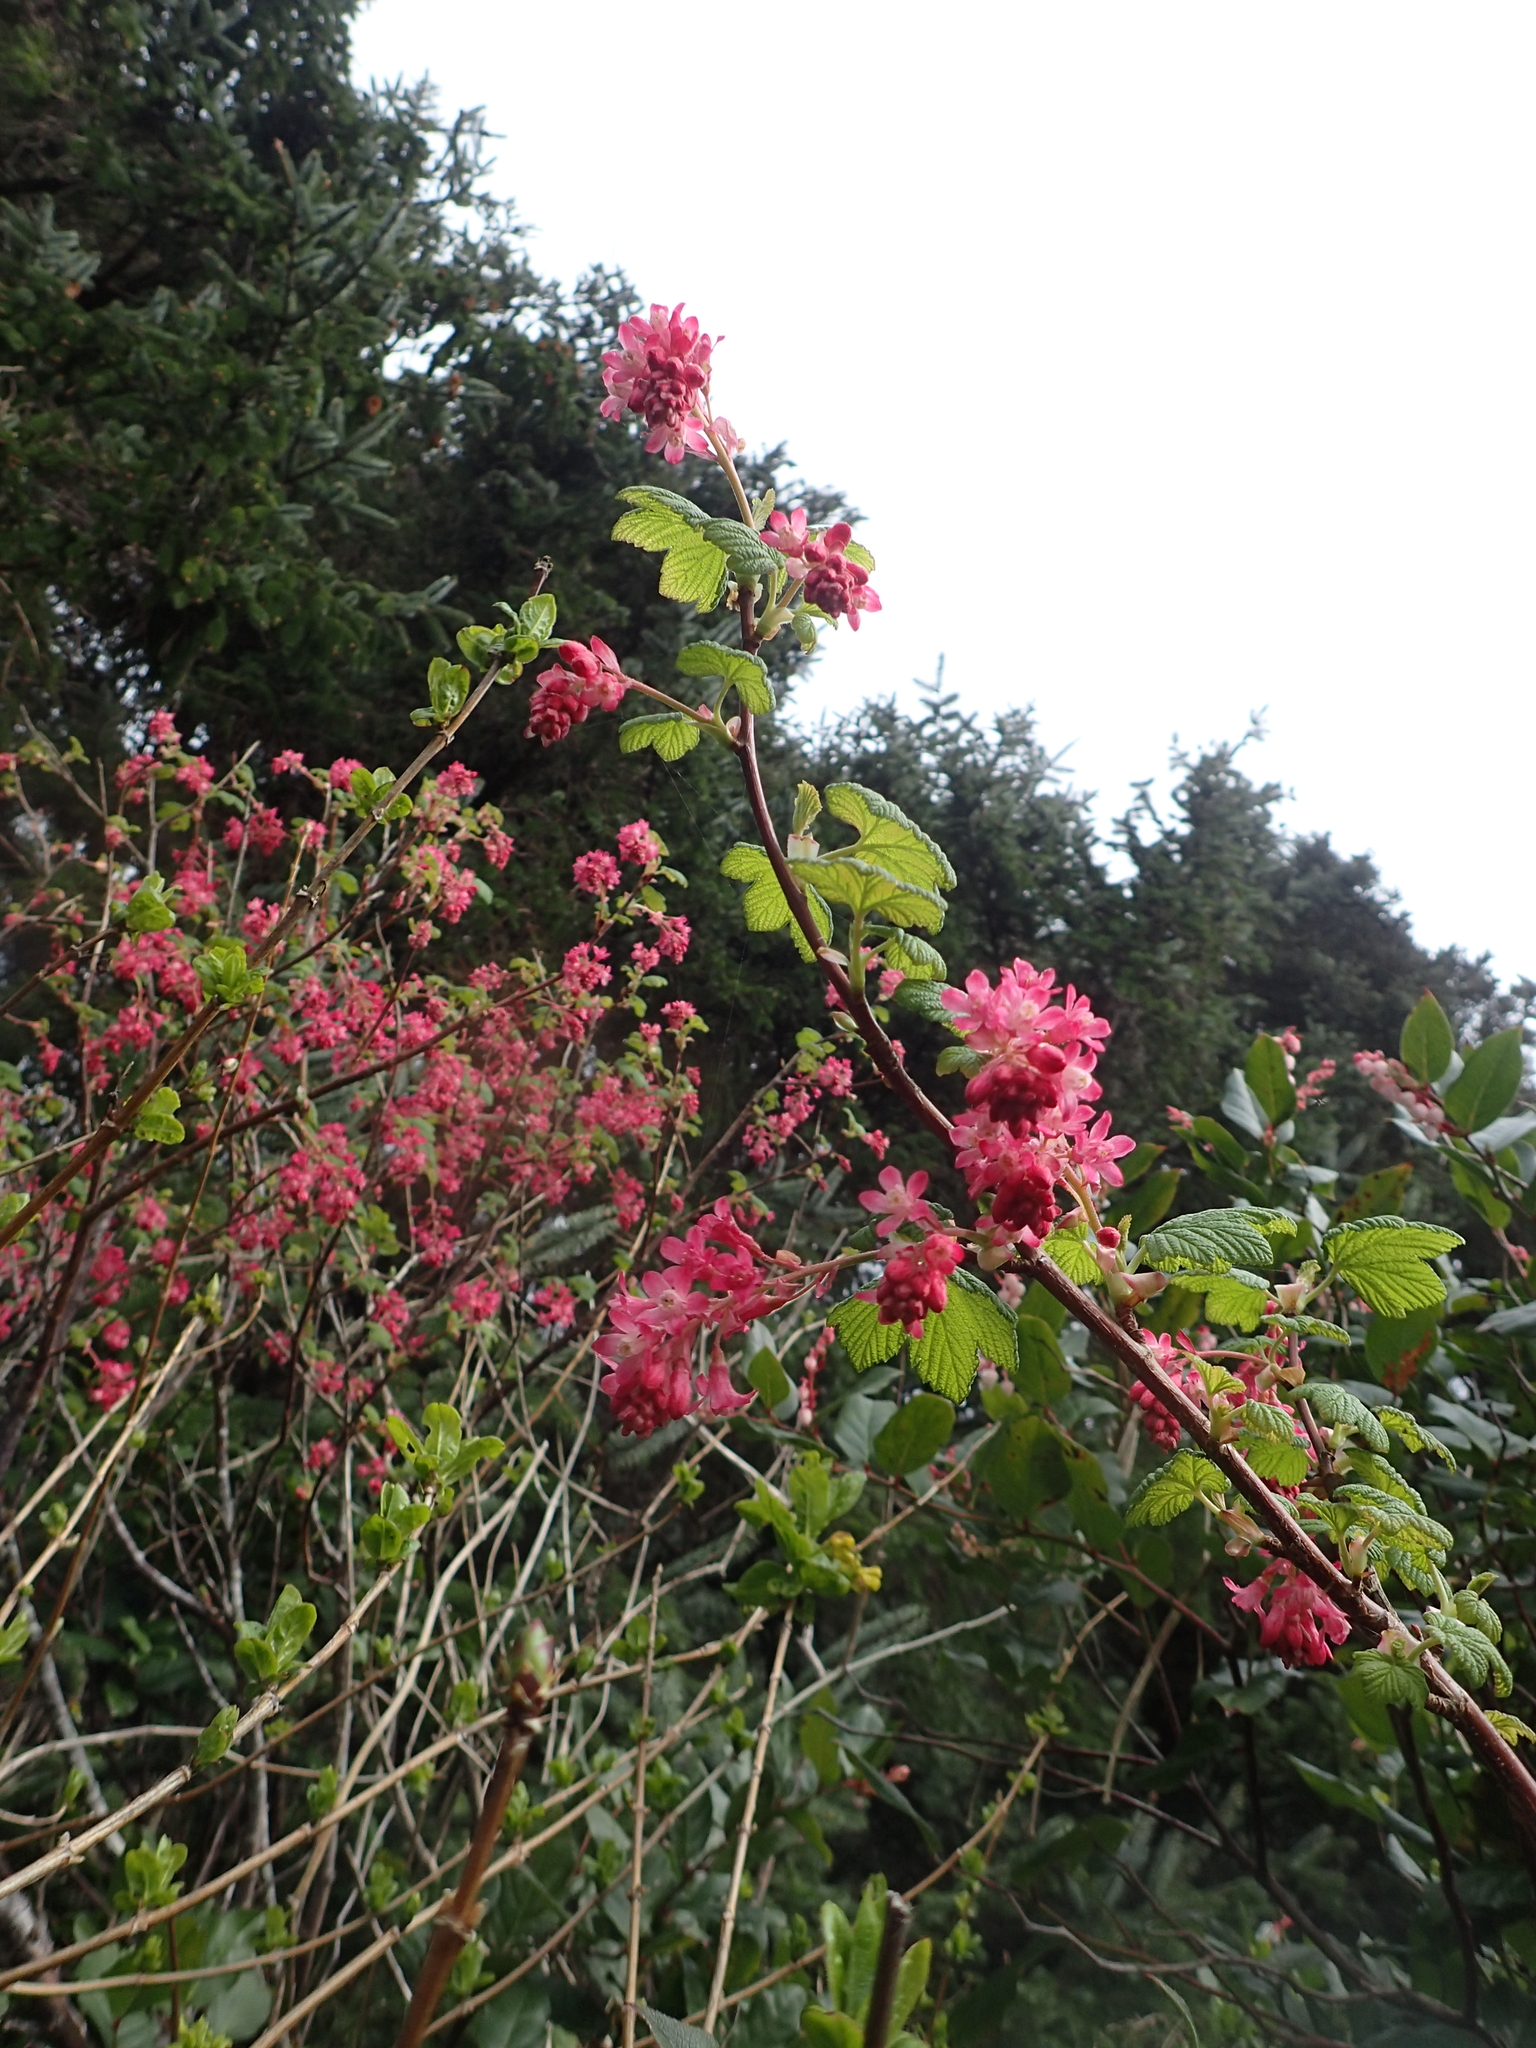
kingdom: Plantae
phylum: Tracheophyta
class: Magnoliopsida
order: Saxifragales
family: Grossulariaceae
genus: Ribes
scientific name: Ribes sanguineum
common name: Flowering currant
